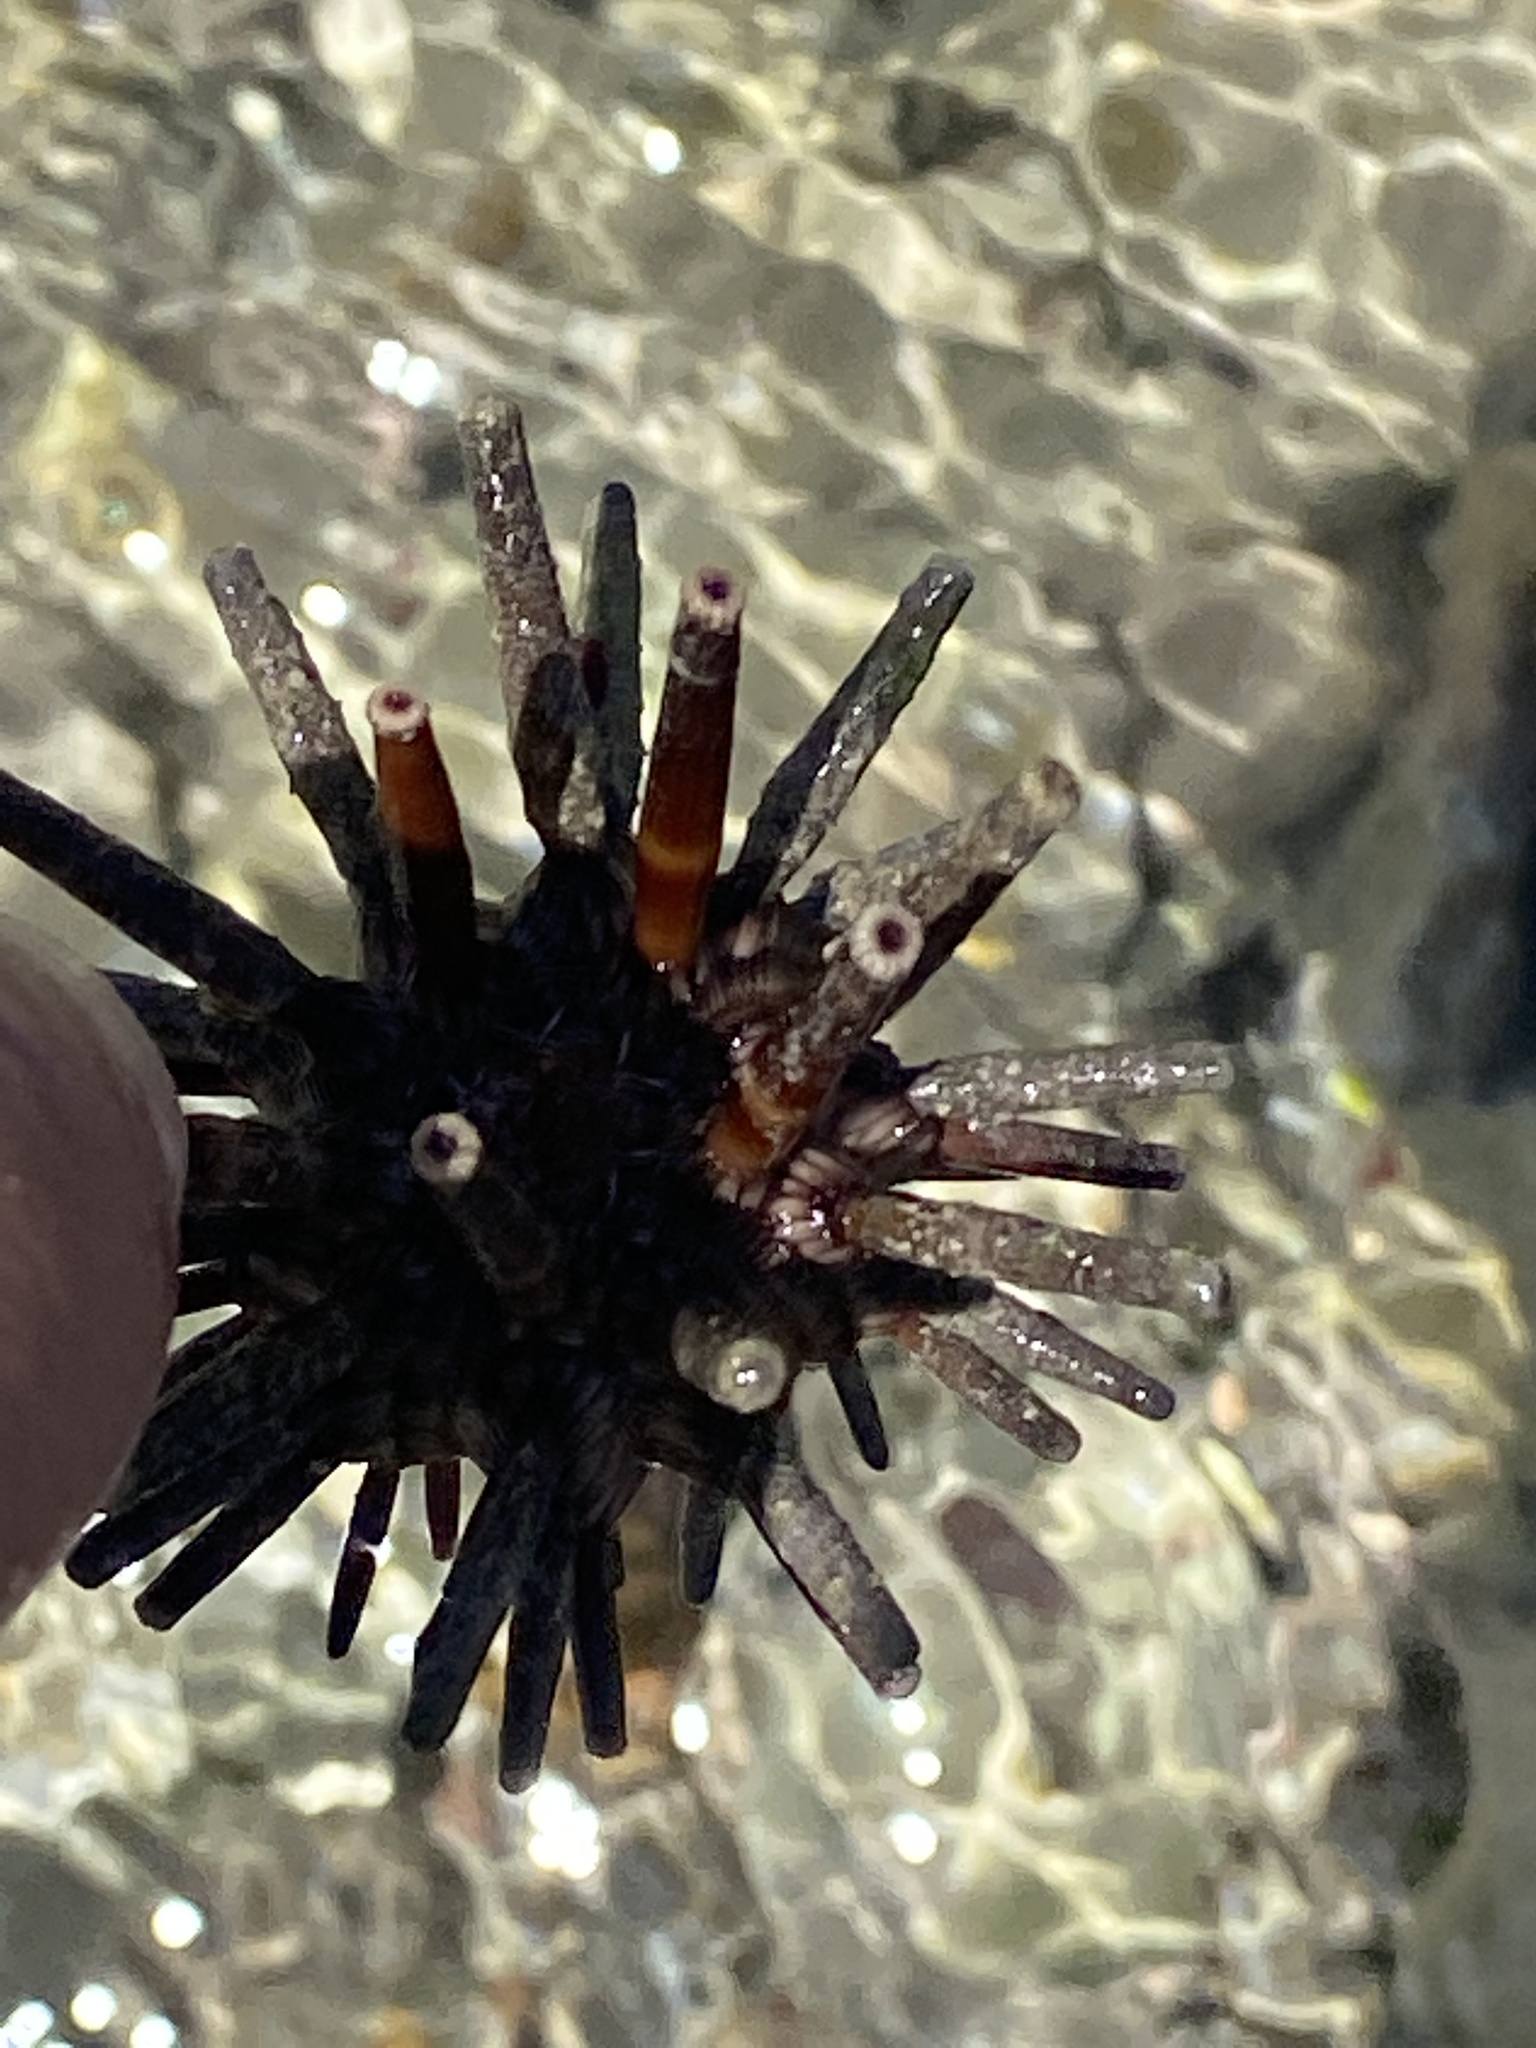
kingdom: Animalia
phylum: Echinodermata
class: Echinoidea
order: Cidaroida
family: Cidaridae
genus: Eucidaris
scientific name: Eucidaris tribuloides
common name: Slate pencil urchin
